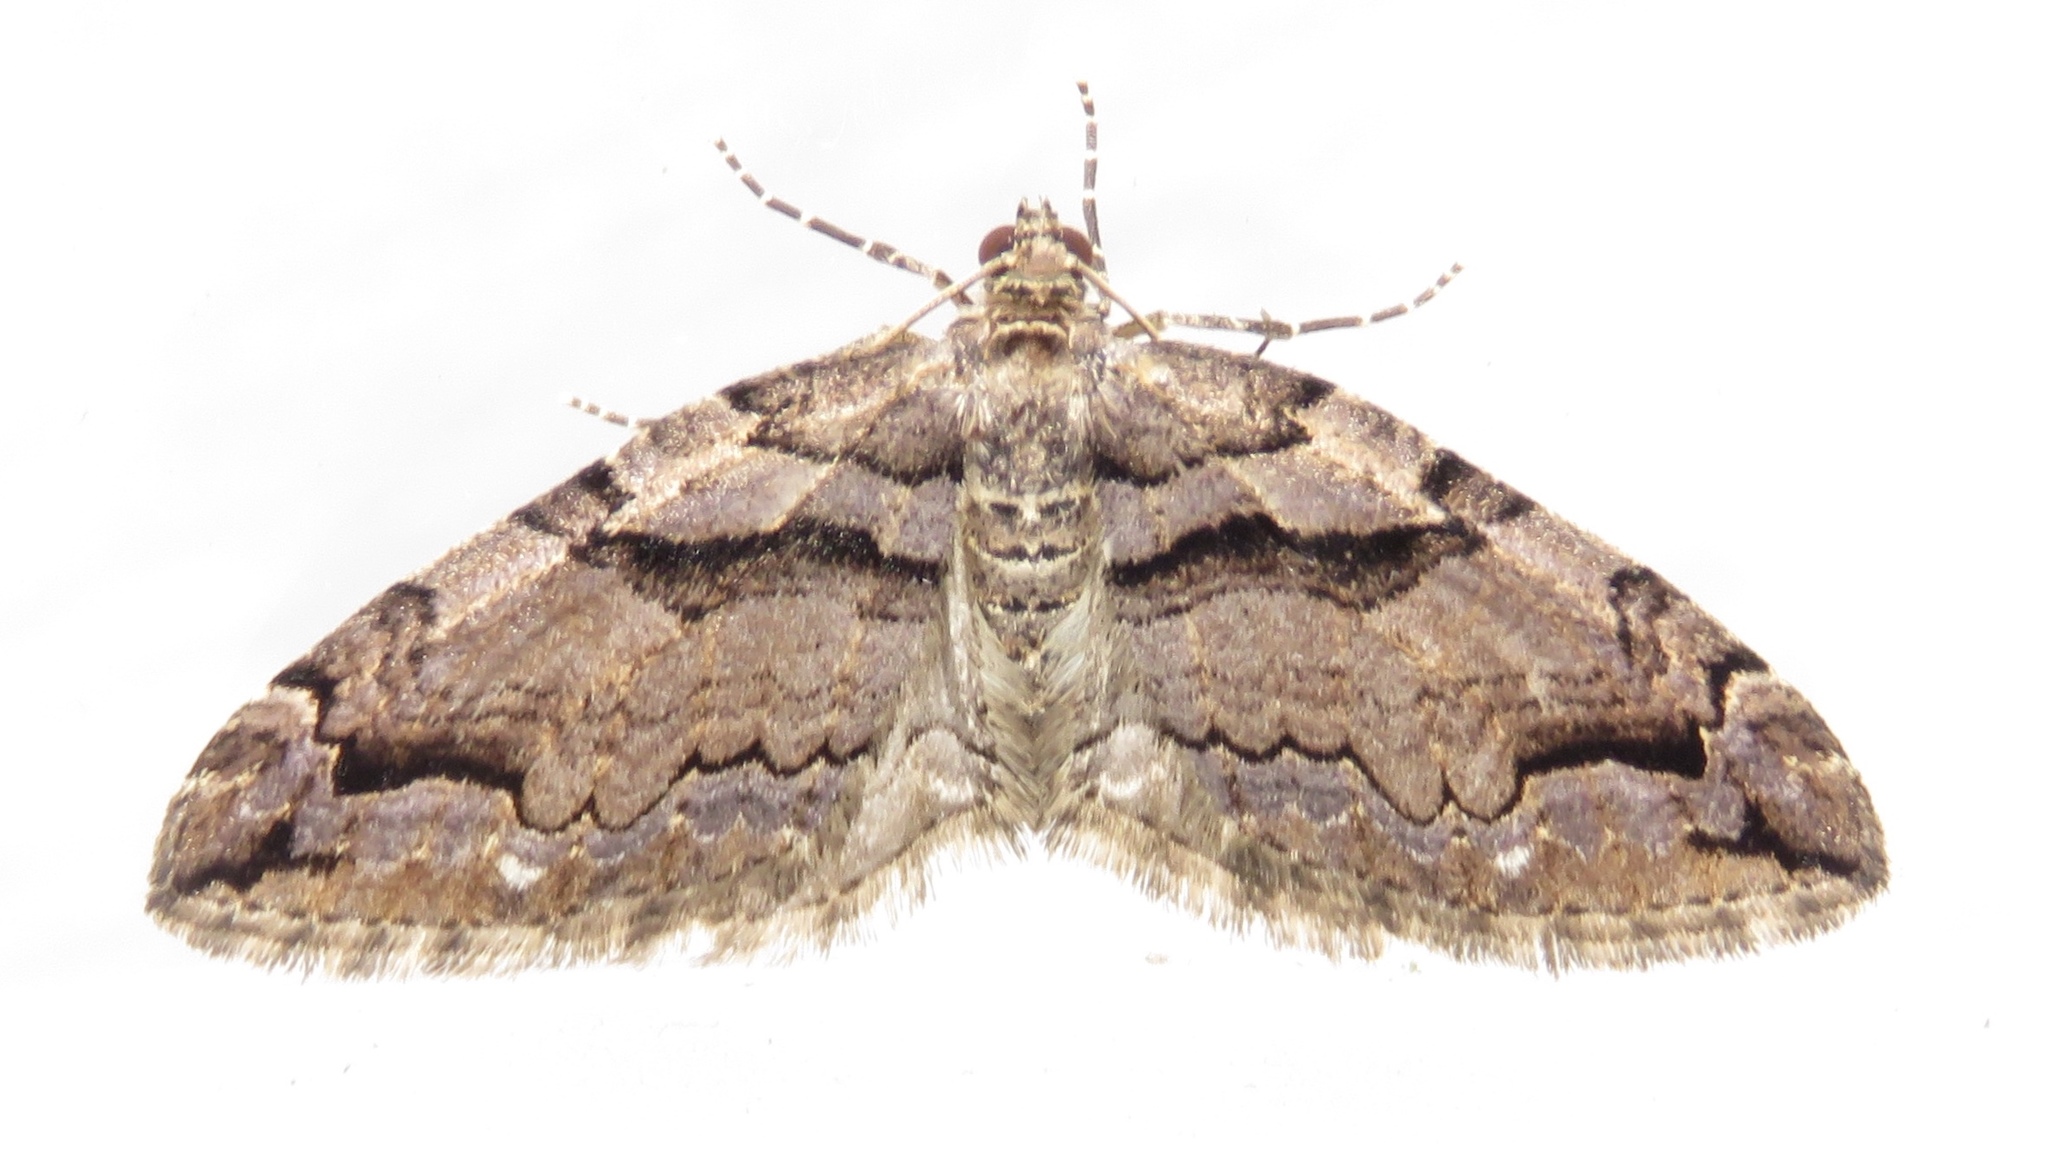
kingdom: Animalia
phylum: Arthropoda
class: Insecta
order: Lepidoptera
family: Geometridae
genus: Anticlea
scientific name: Anticlea vasiliata
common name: Variable carpet
